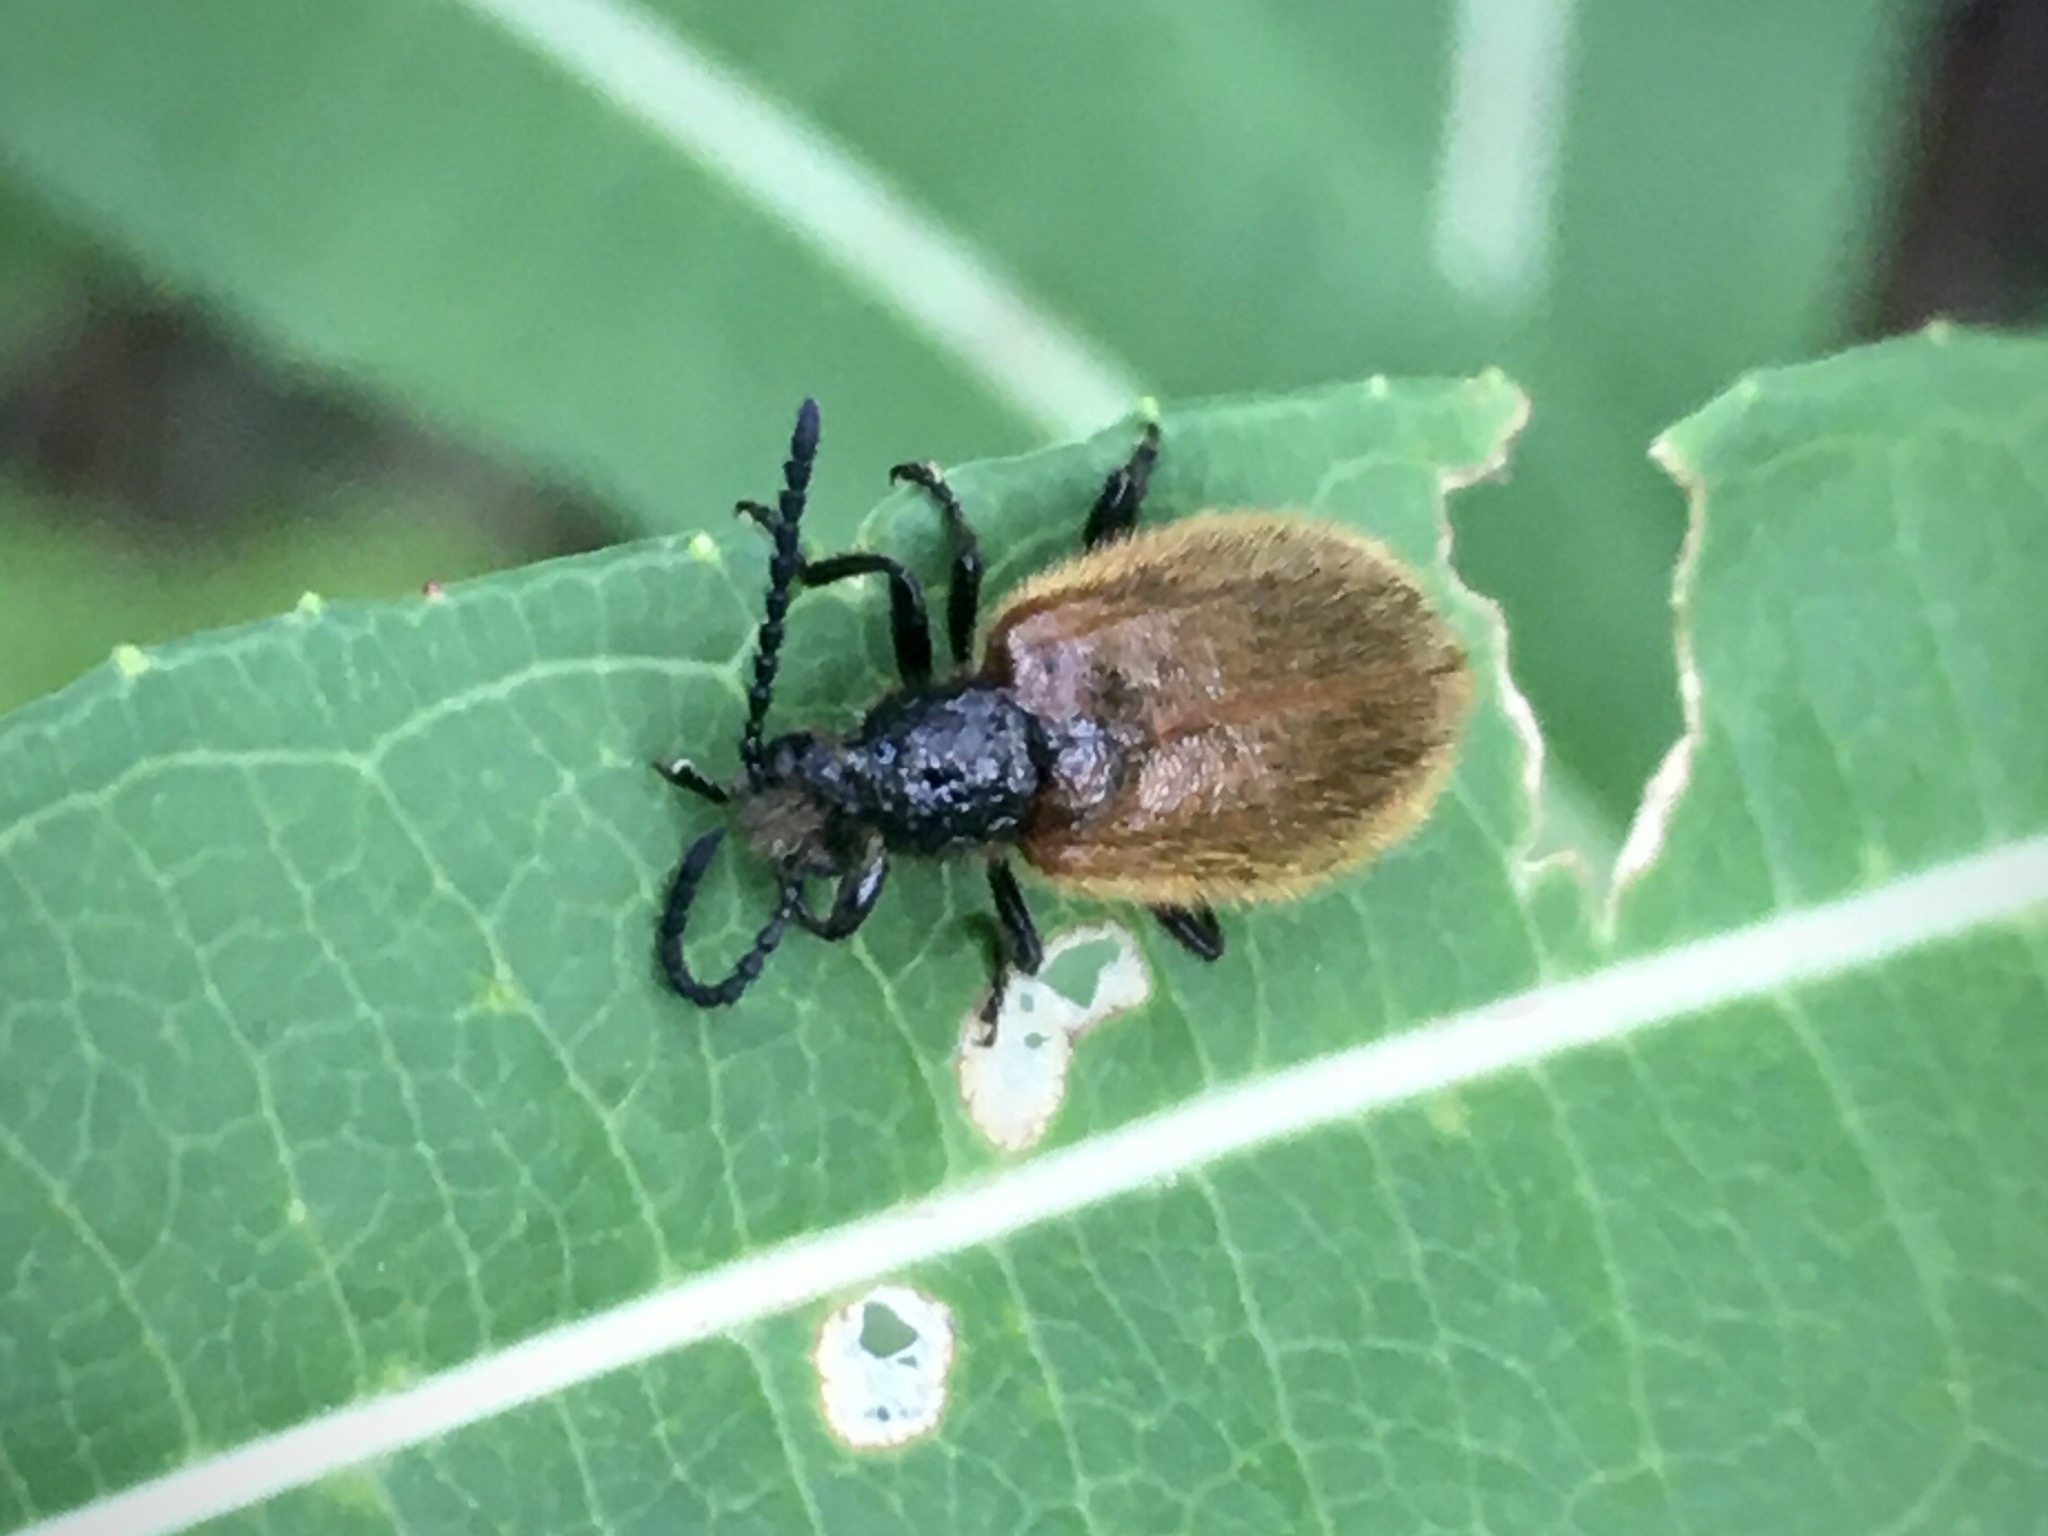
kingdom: Animalia
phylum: Arthropoda
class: Insecta
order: Coleoptera
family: Tenebrionidae
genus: Lagria
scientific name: Lagria hirta
